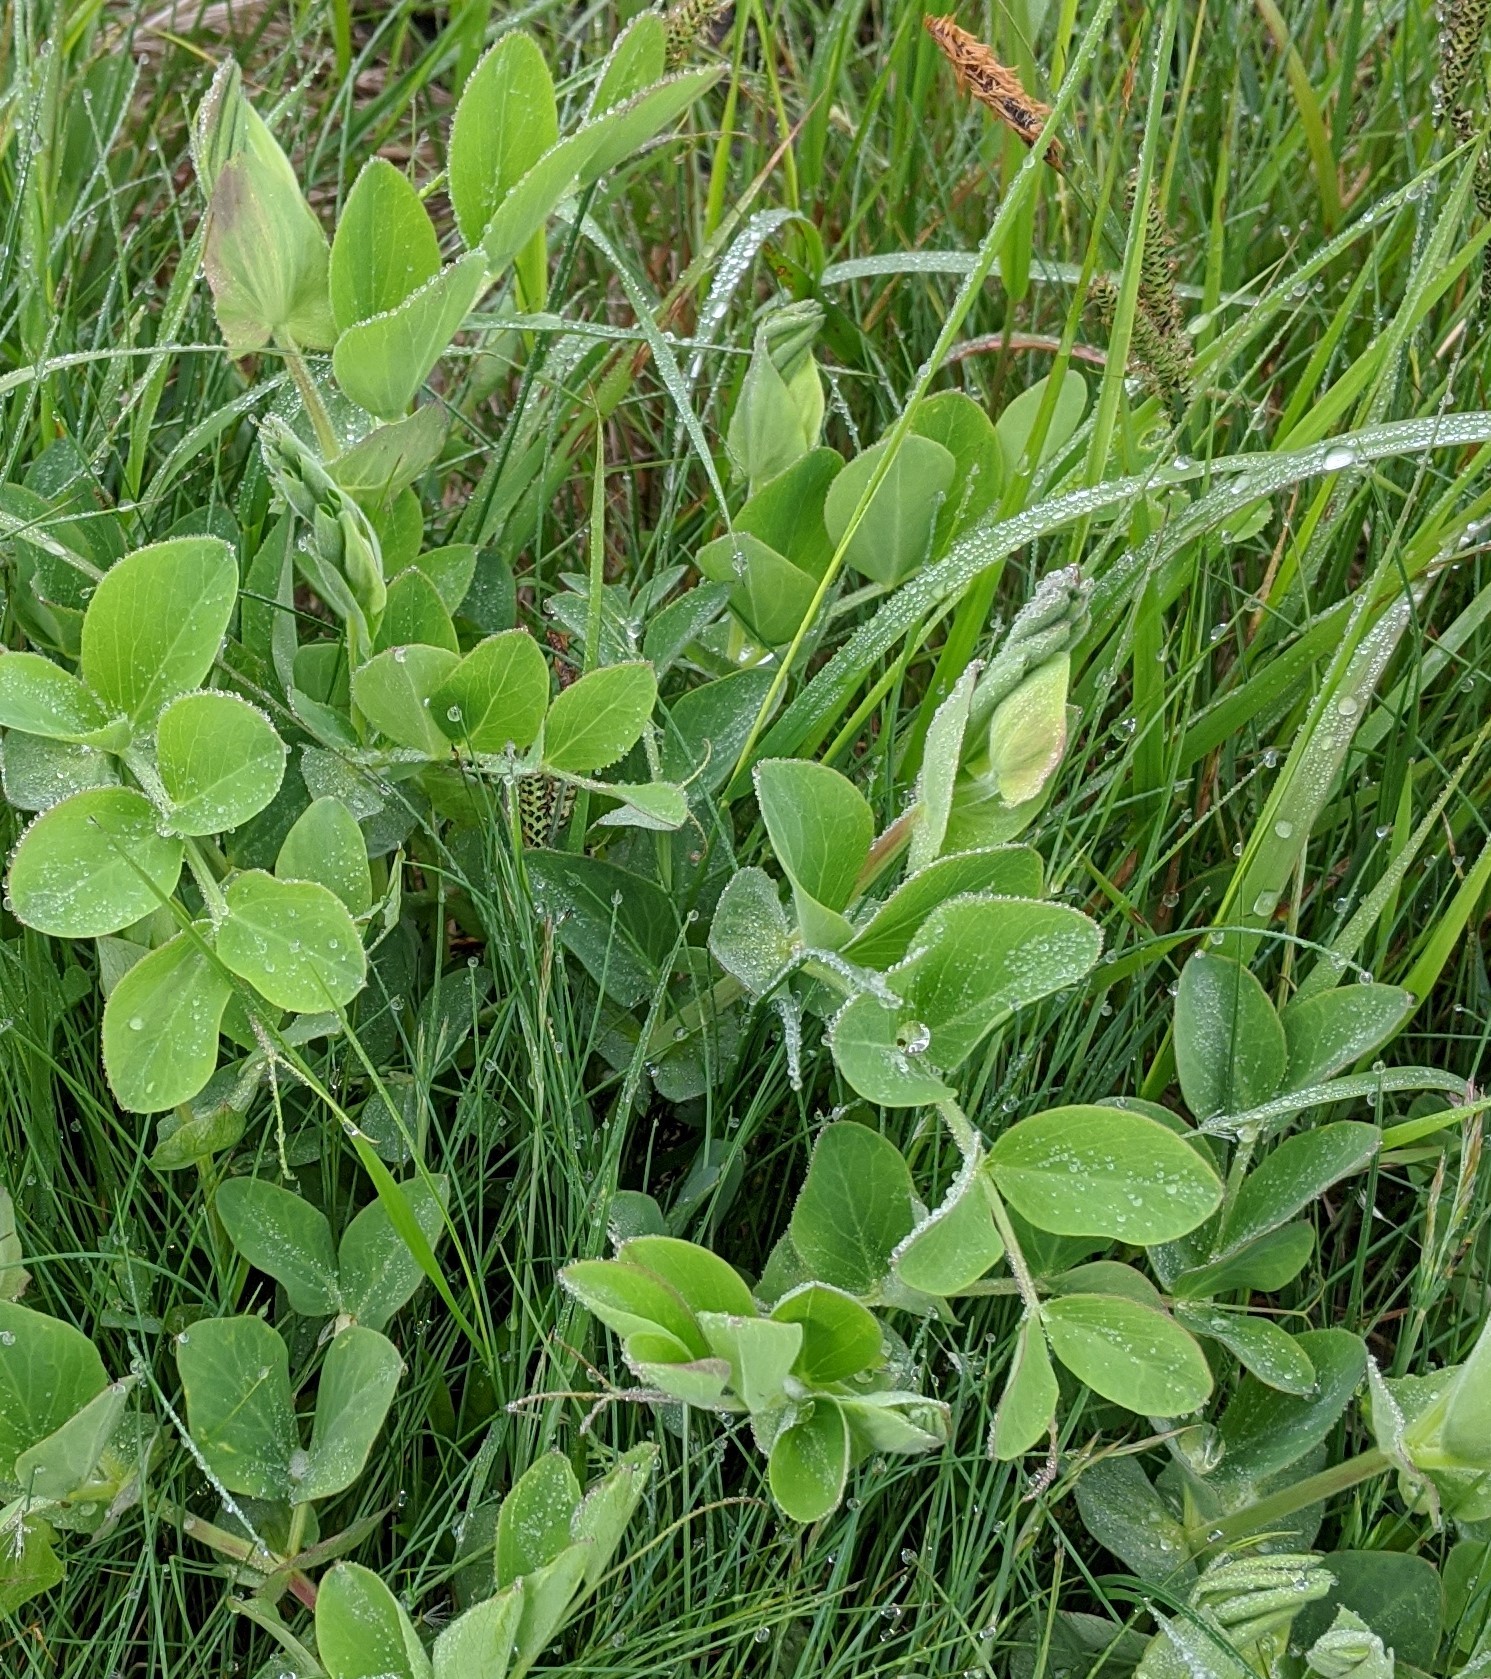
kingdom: Plantae
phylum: Tracheophyta
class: Magnoliopsida
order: Fabales
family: Fabaceae
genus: Lathyrus
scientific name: Lathyrus japonicus
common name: Sea pea
